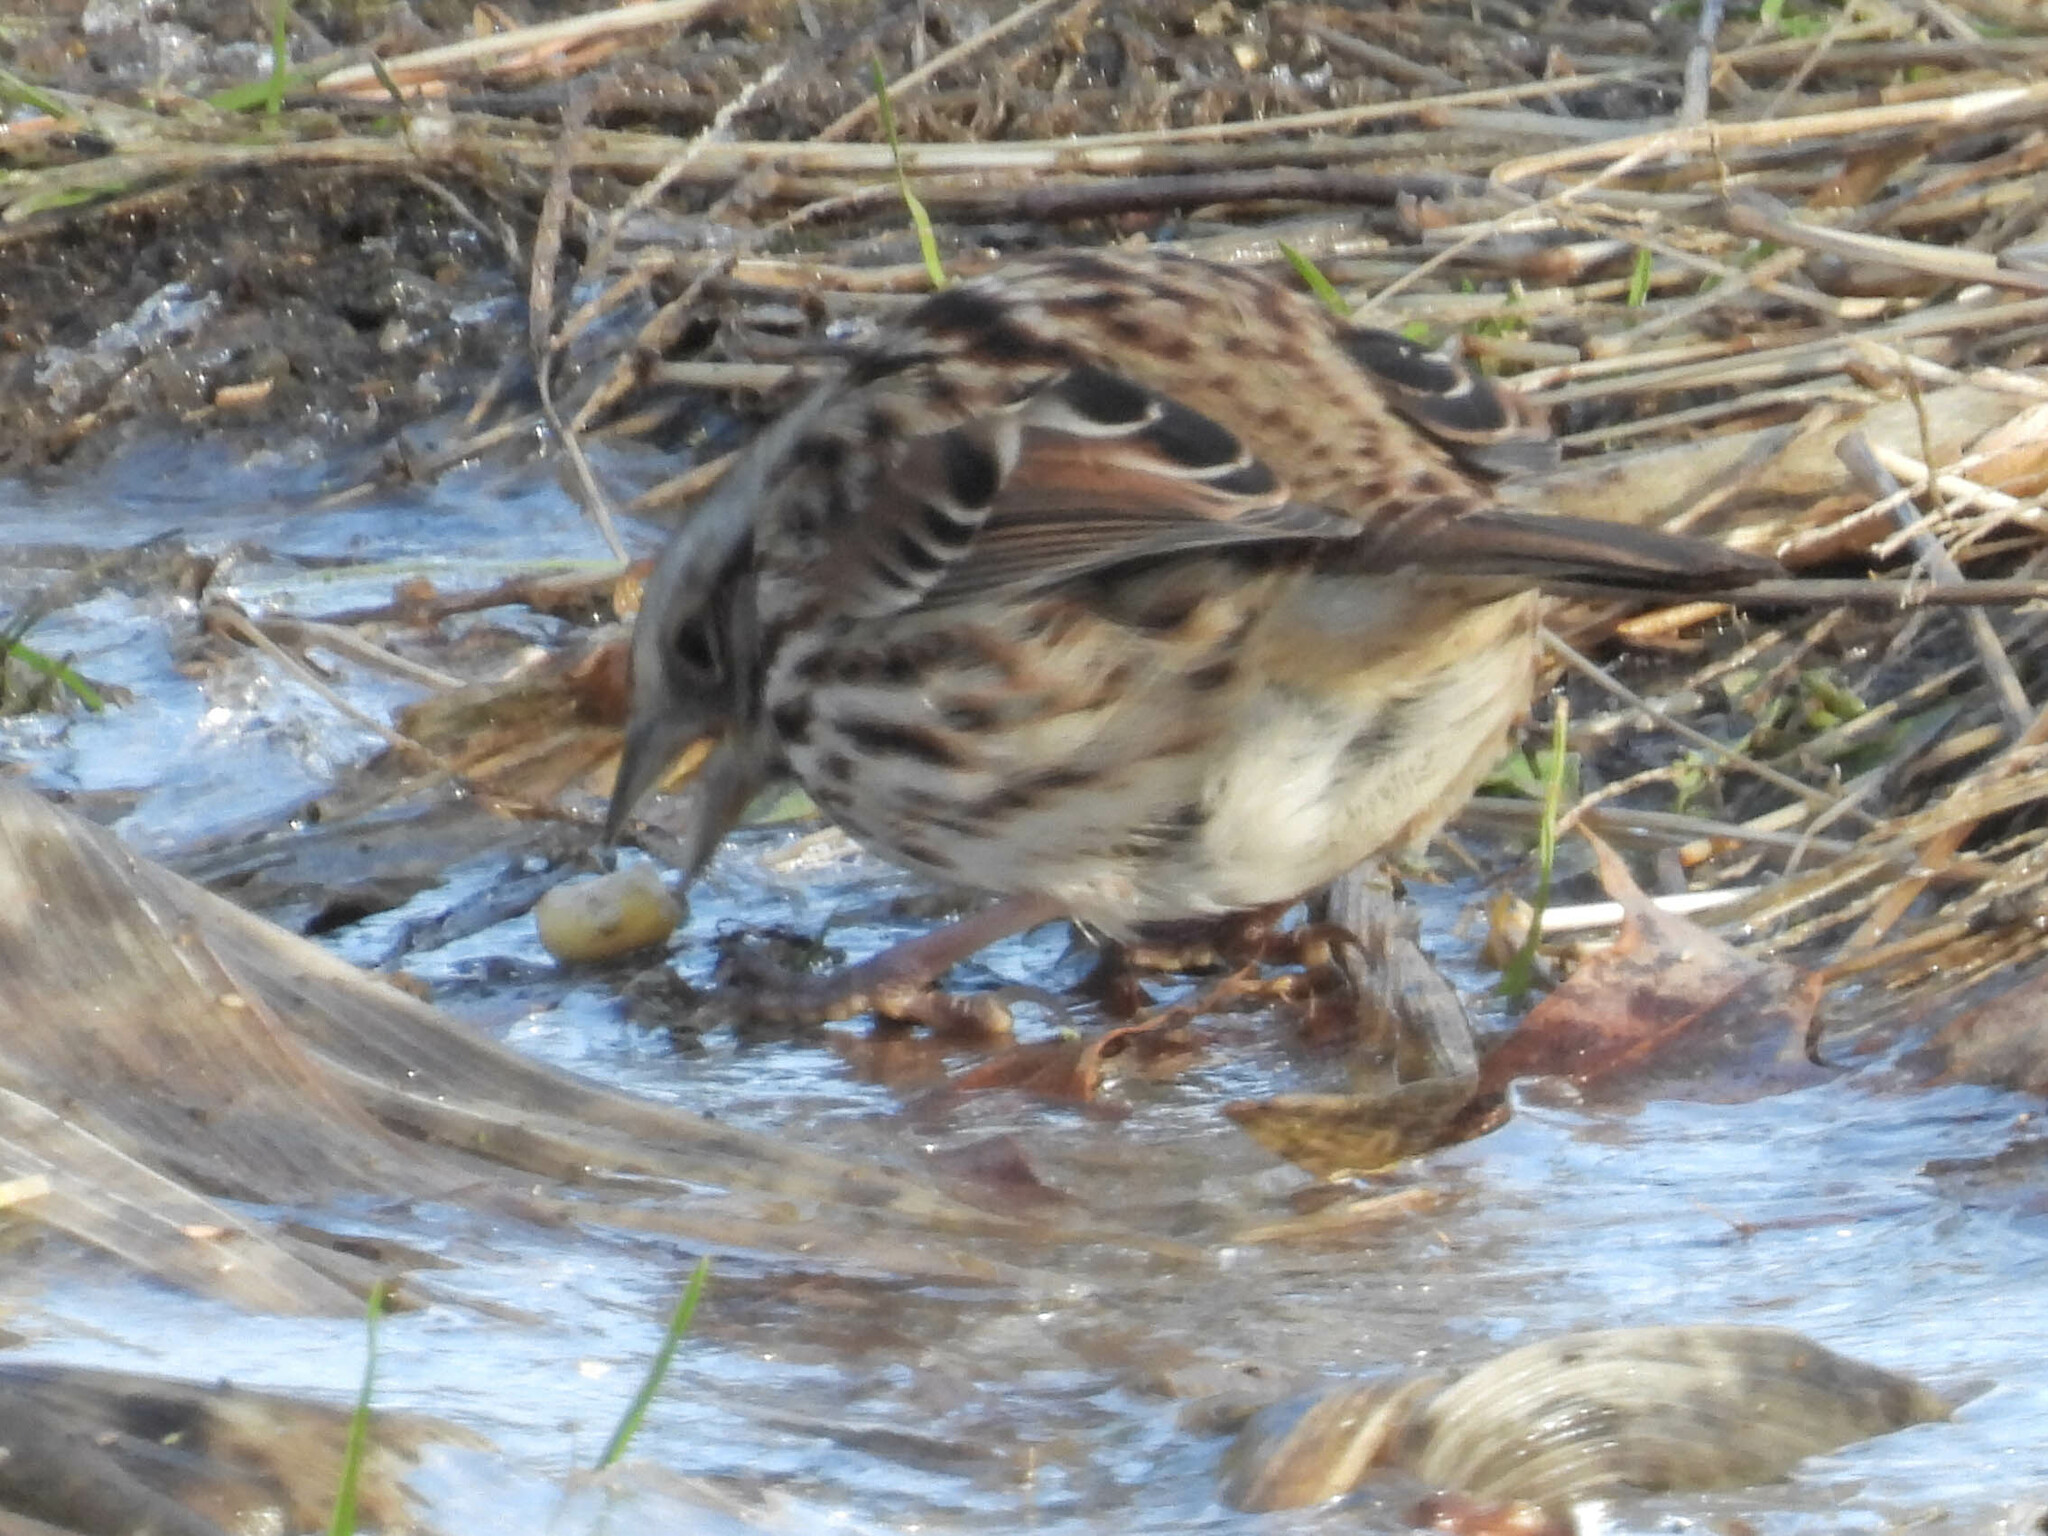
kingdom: Animalia
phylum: Chordata
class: Aves
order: Passeriformes
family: Passerellidae
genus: Melospiza
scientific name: Melospiza melodia
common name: Song sparrow
